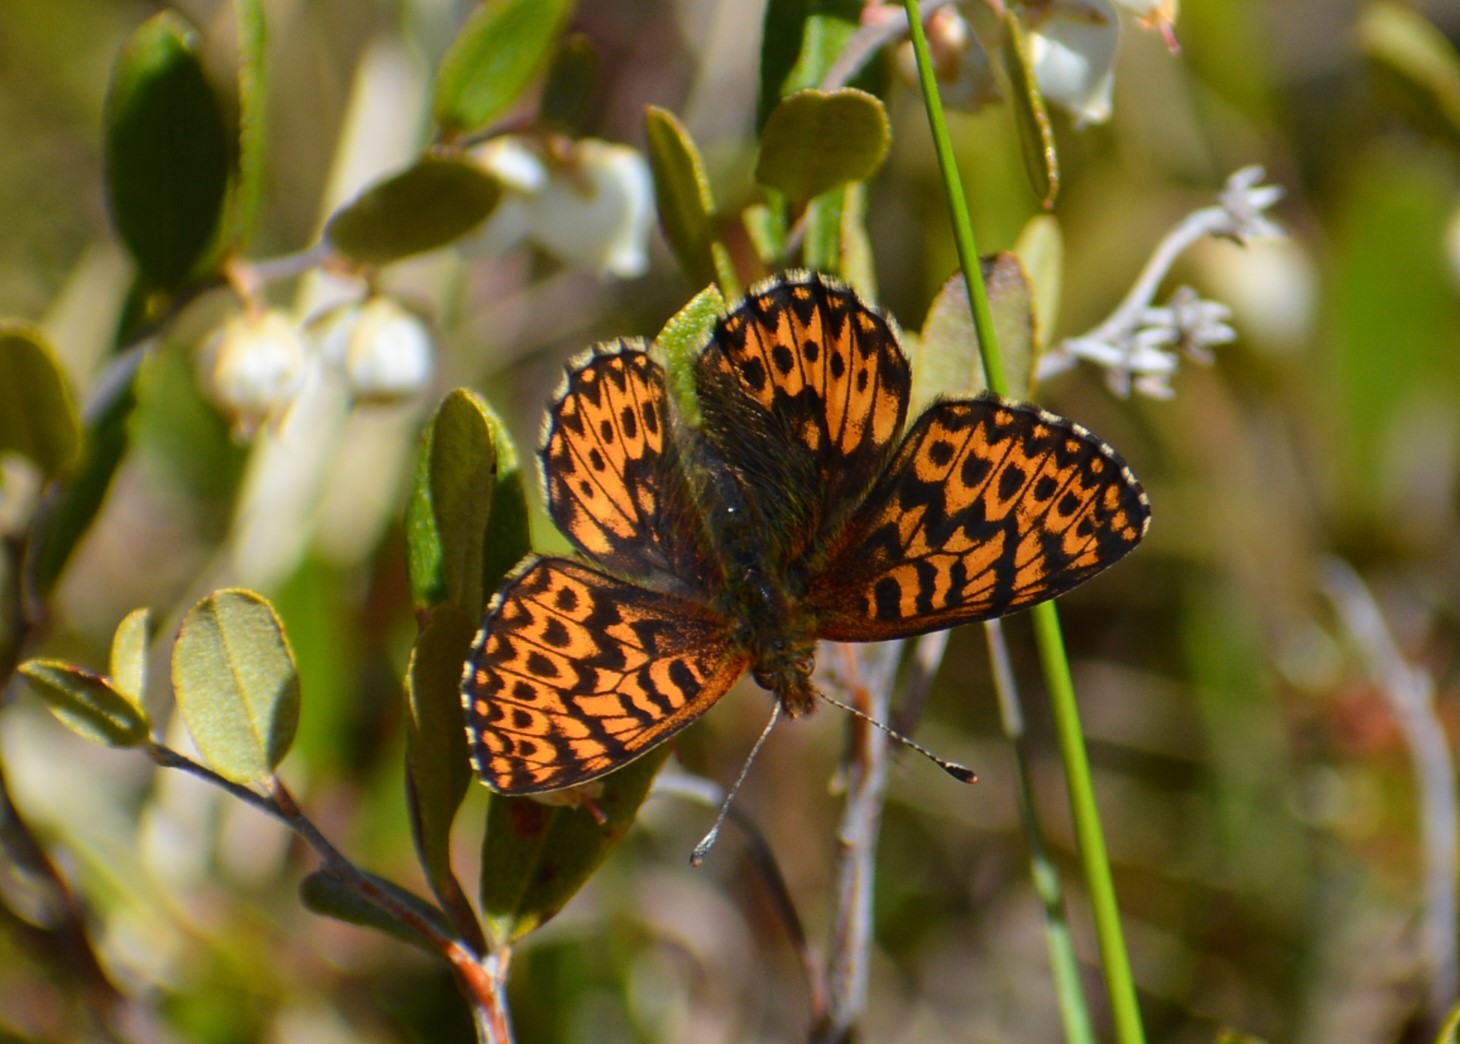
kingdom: Animalia
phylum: Arthropoda
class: Insecta
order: Lepidoptera
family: Nymphalidae
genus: Boloria
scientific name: Boloria freija
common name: Freija fritillary
